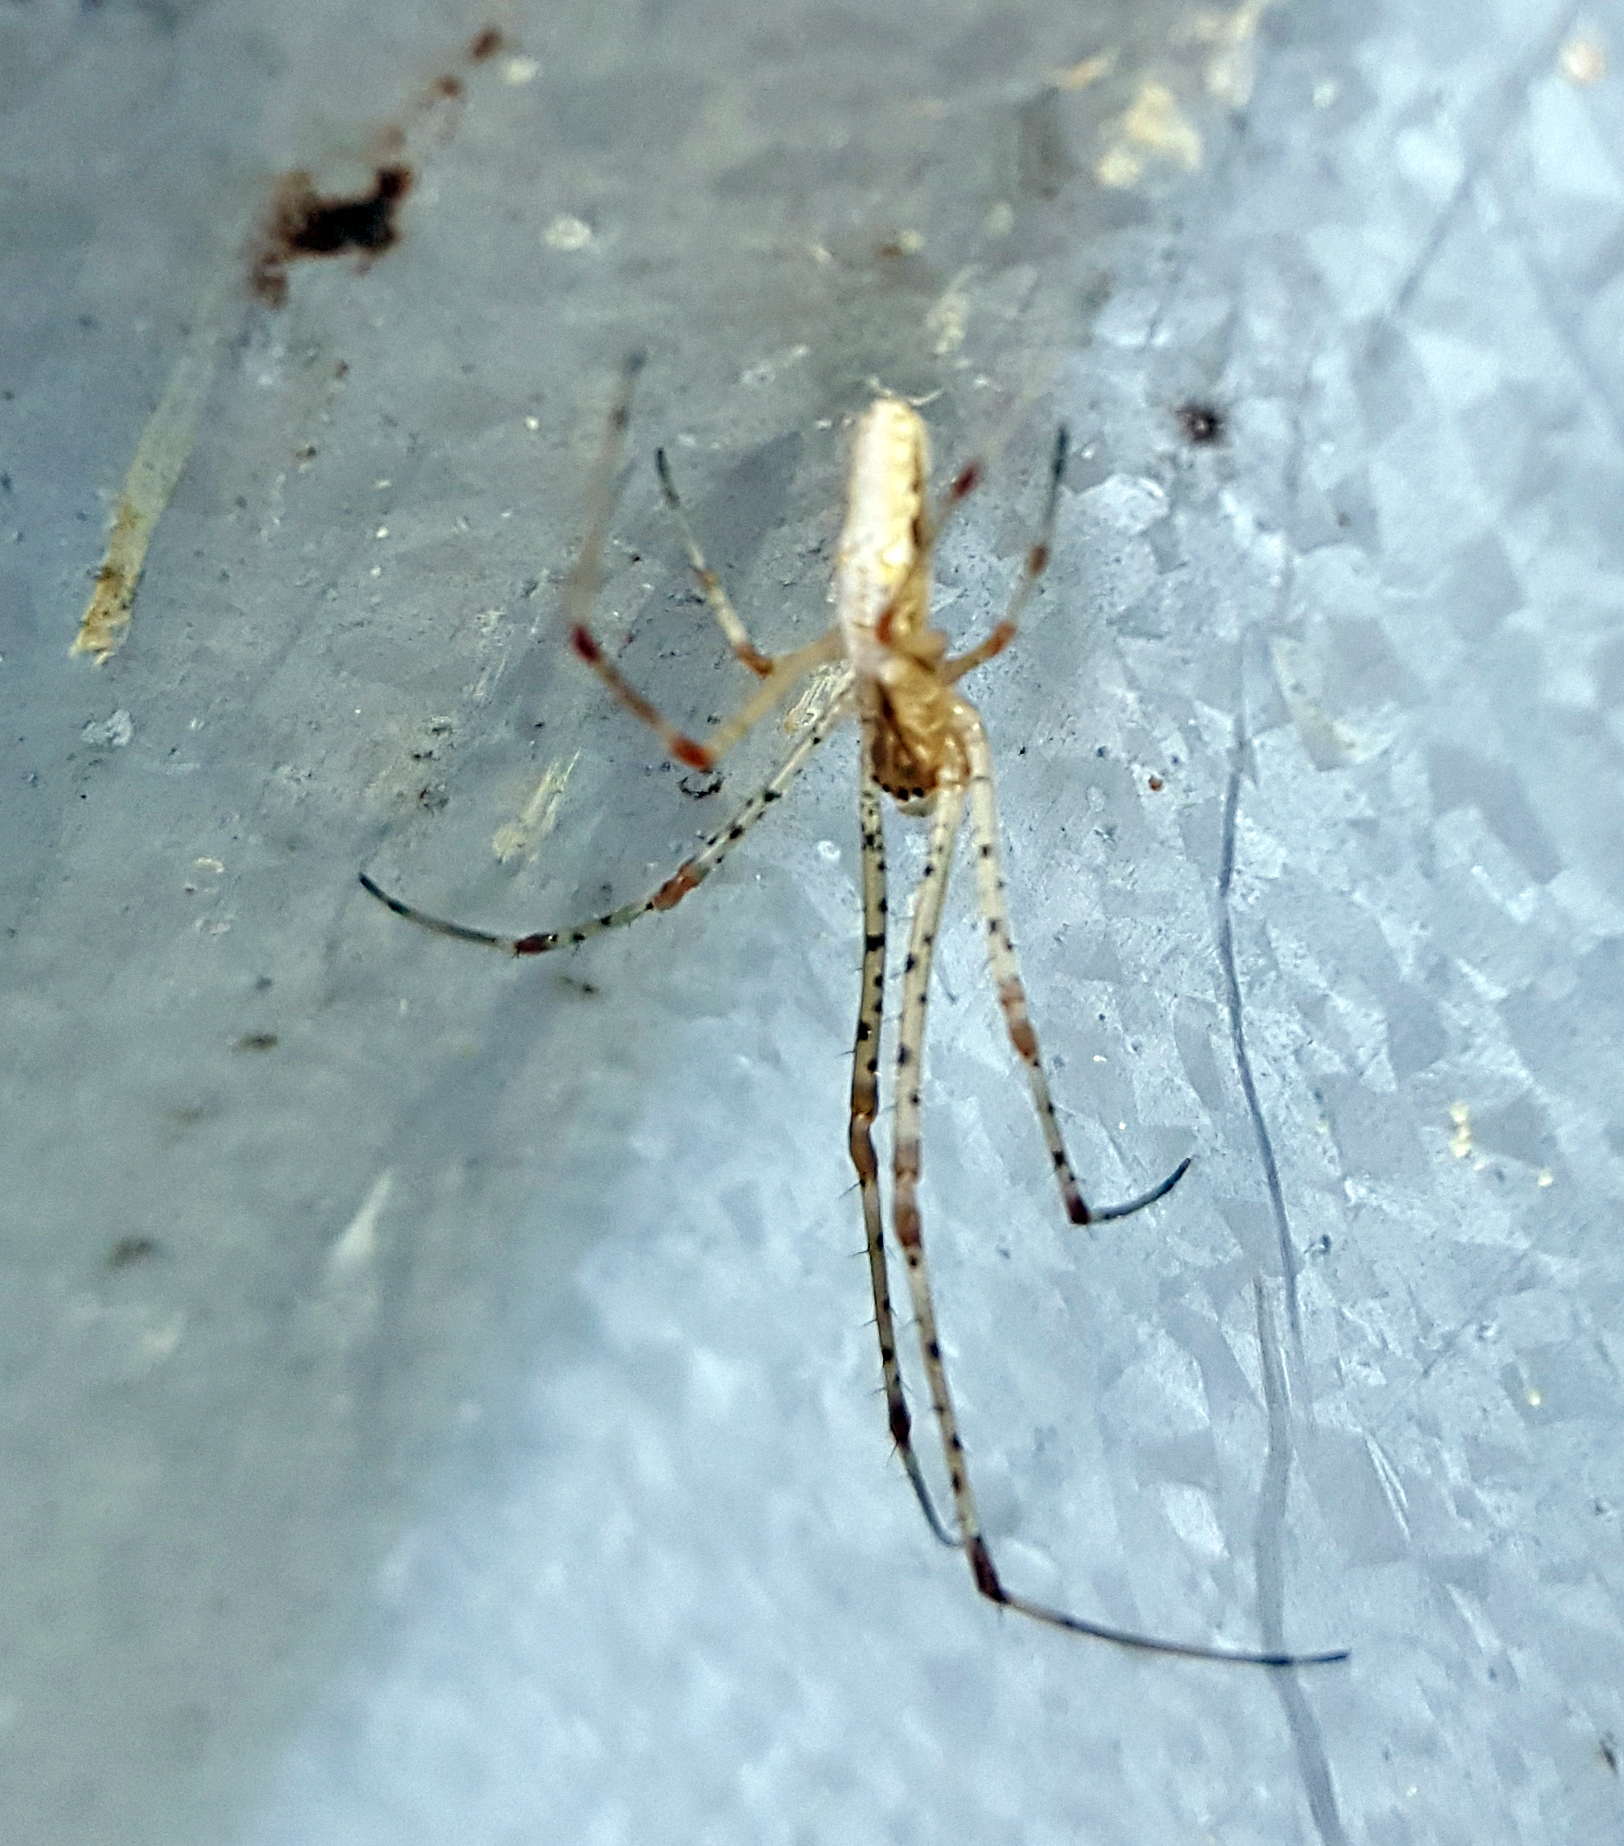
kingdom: Animalia
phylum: Arthropoda
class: Arachnida
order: Araneae
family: Tetragnathidae
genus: Tetragnatha
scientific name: Tetragnatha
